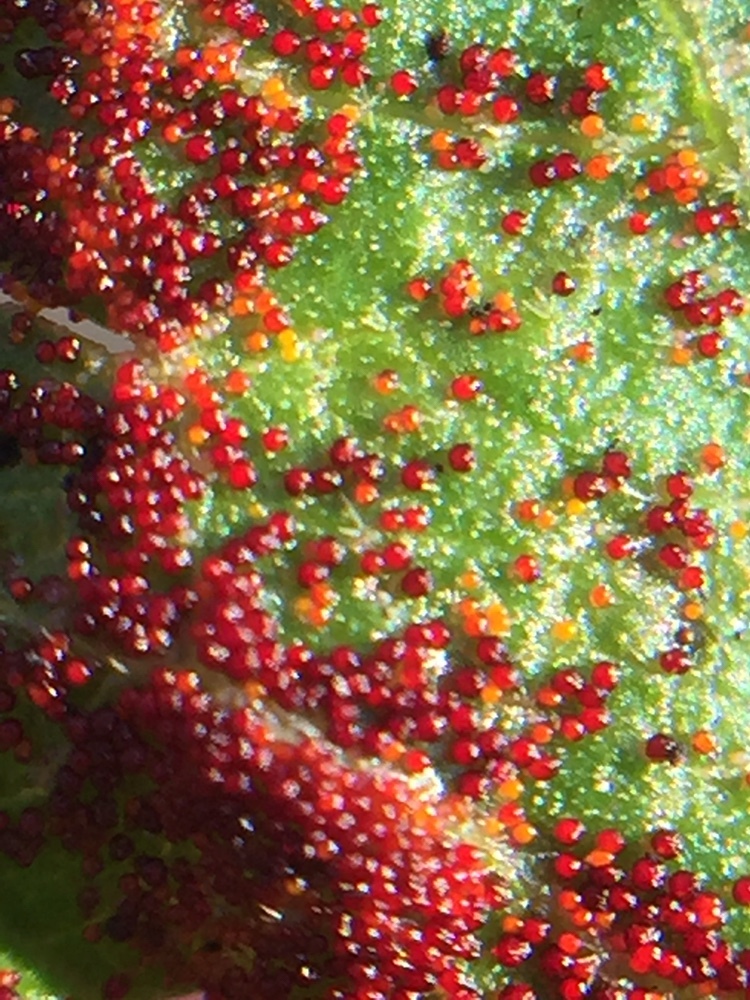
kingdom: Fungi
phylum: Chytridiomycota
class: Chytridiomycetes
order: Chytridiales
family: Synchytriaceae
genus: Synchytrium
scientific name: Synchytrium australe
